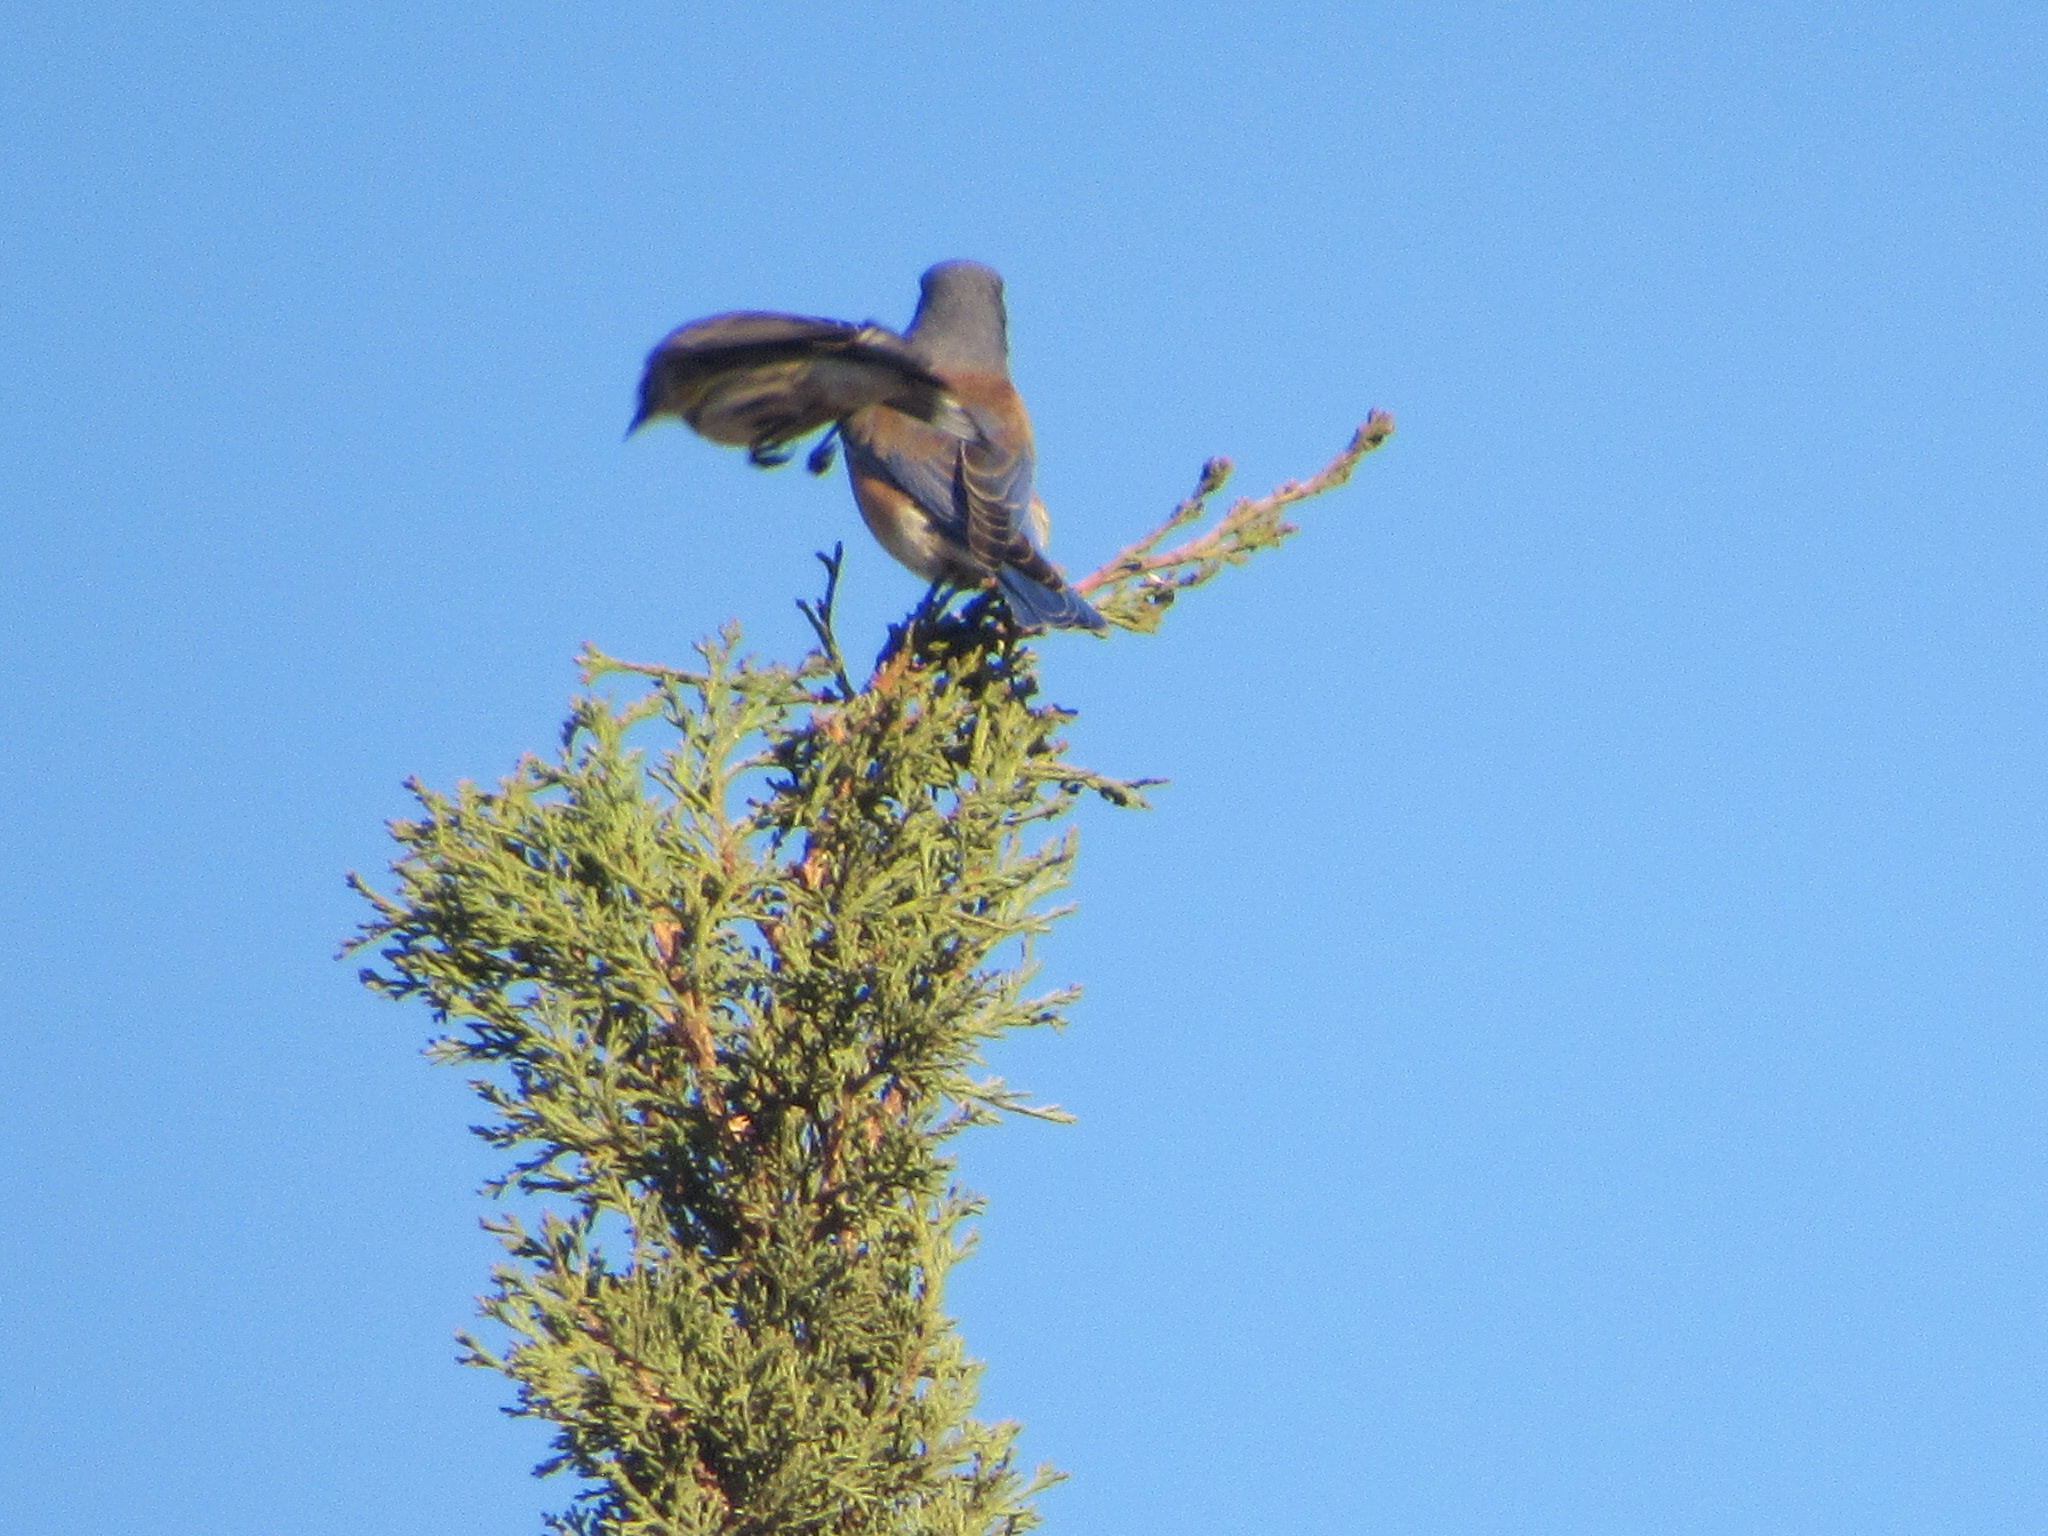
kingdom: Animalia
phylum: Chordata
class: Aves
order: Passeriformes
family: Turdidae
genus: Sialia
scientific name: Sialia mexicana
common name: Western bluebird
